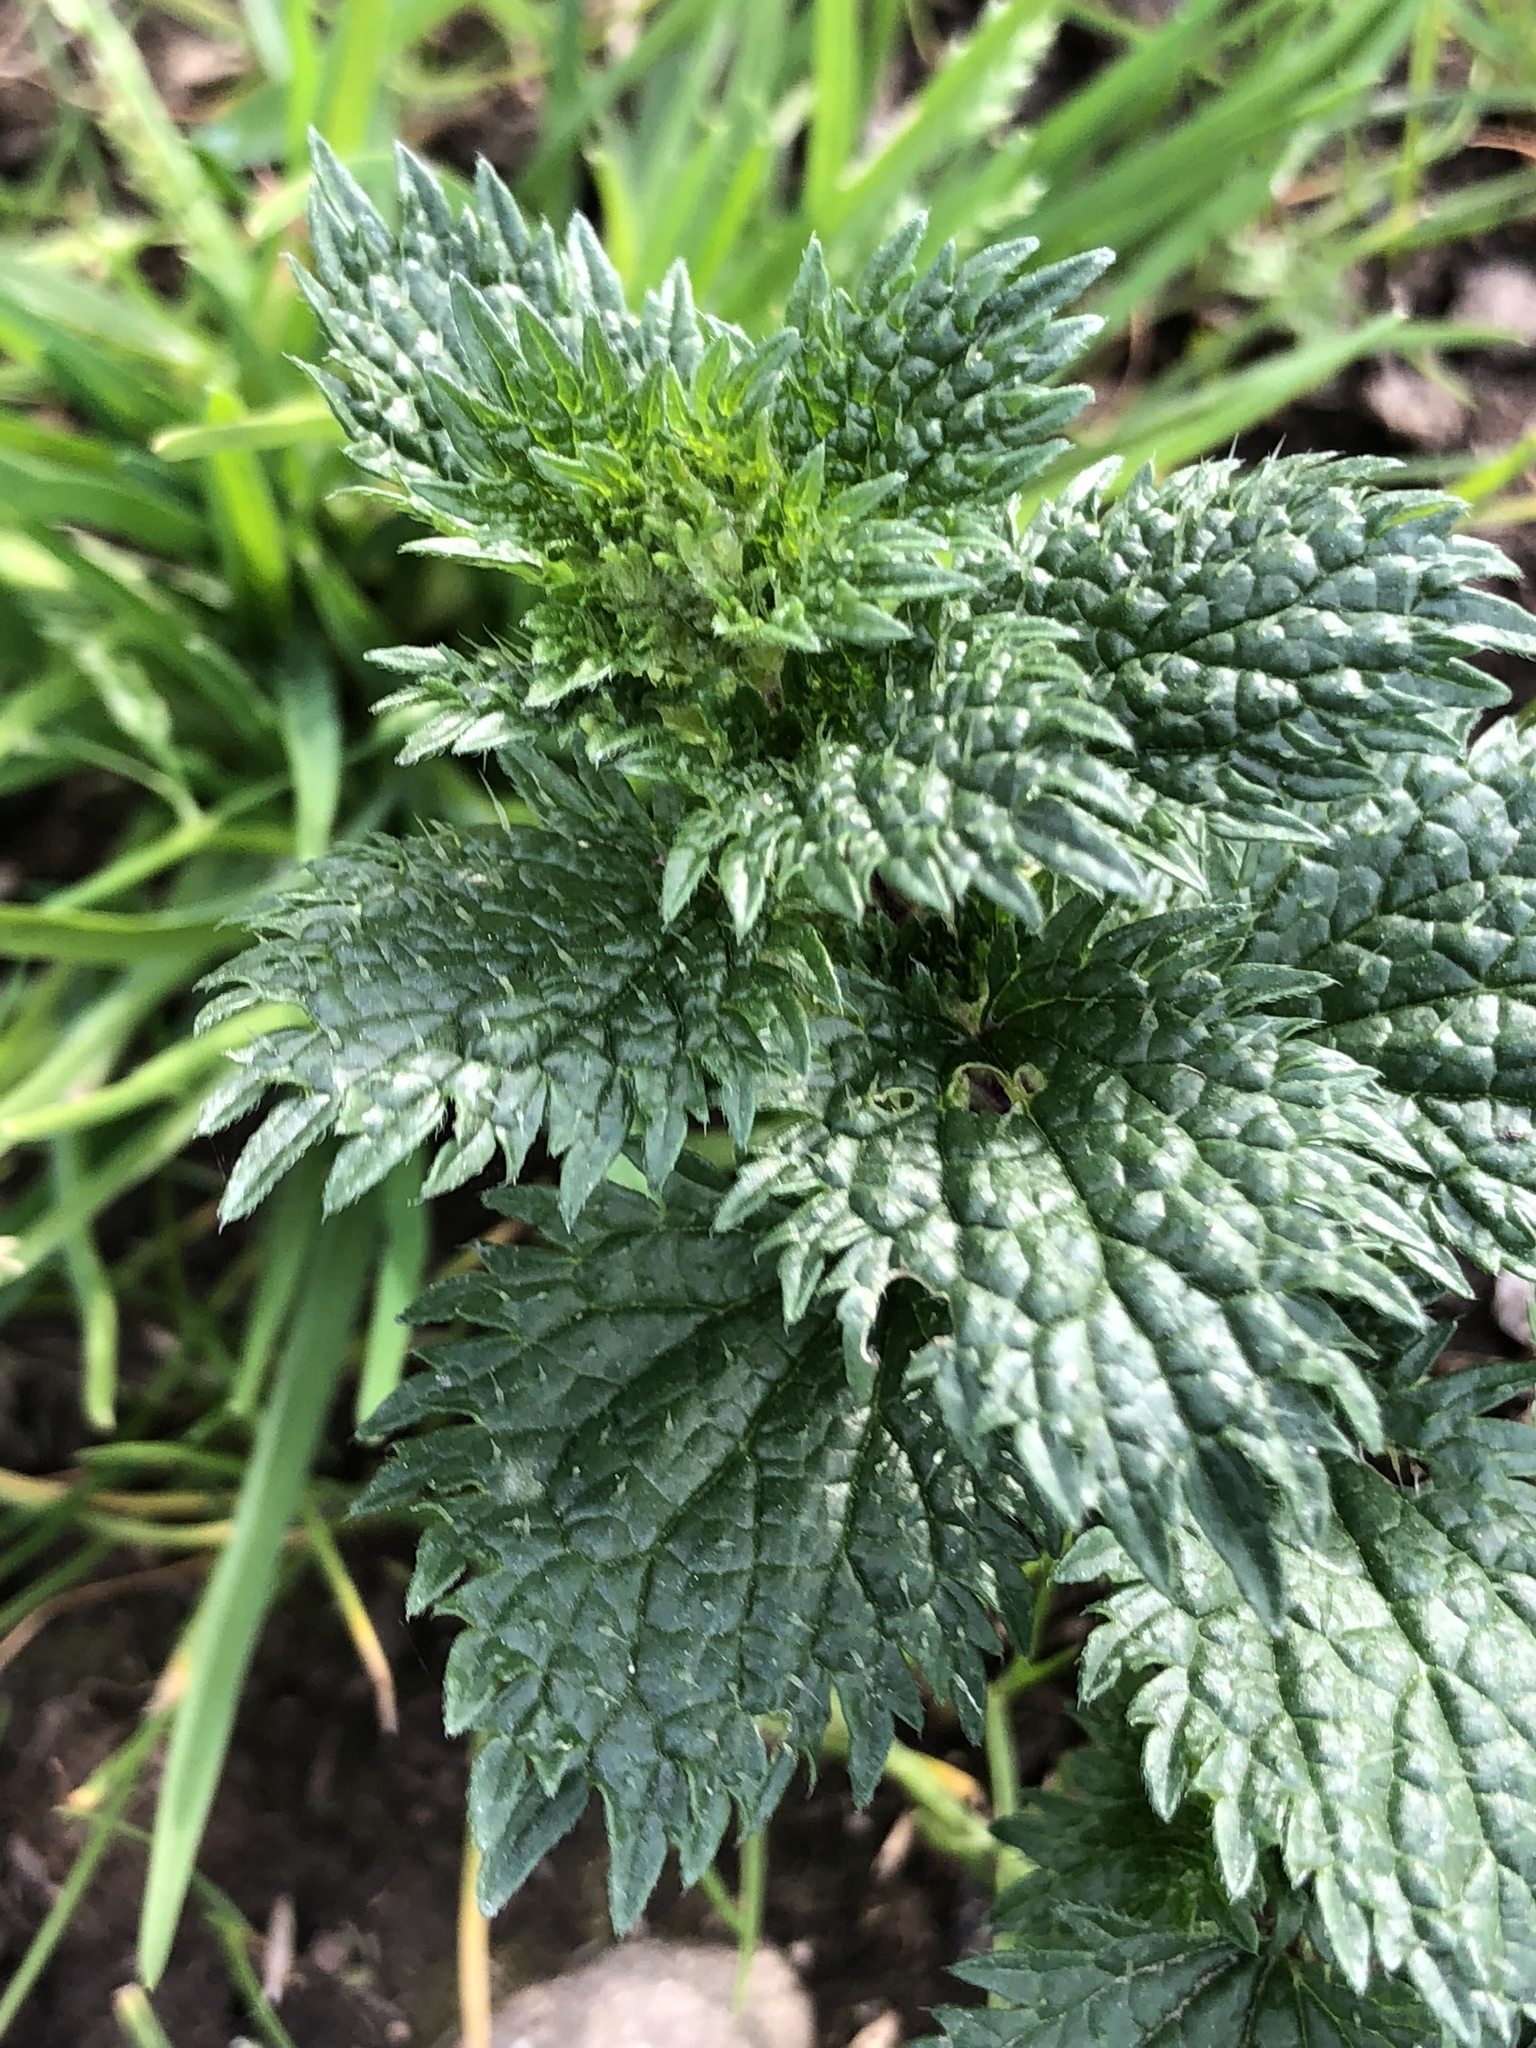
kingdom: Plantae
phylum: Tracheophyta
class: Magnoliopsida
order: Rosales
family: Urticaceae
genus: Urtica
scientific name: Urtica urens
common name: Dwarf nettle
